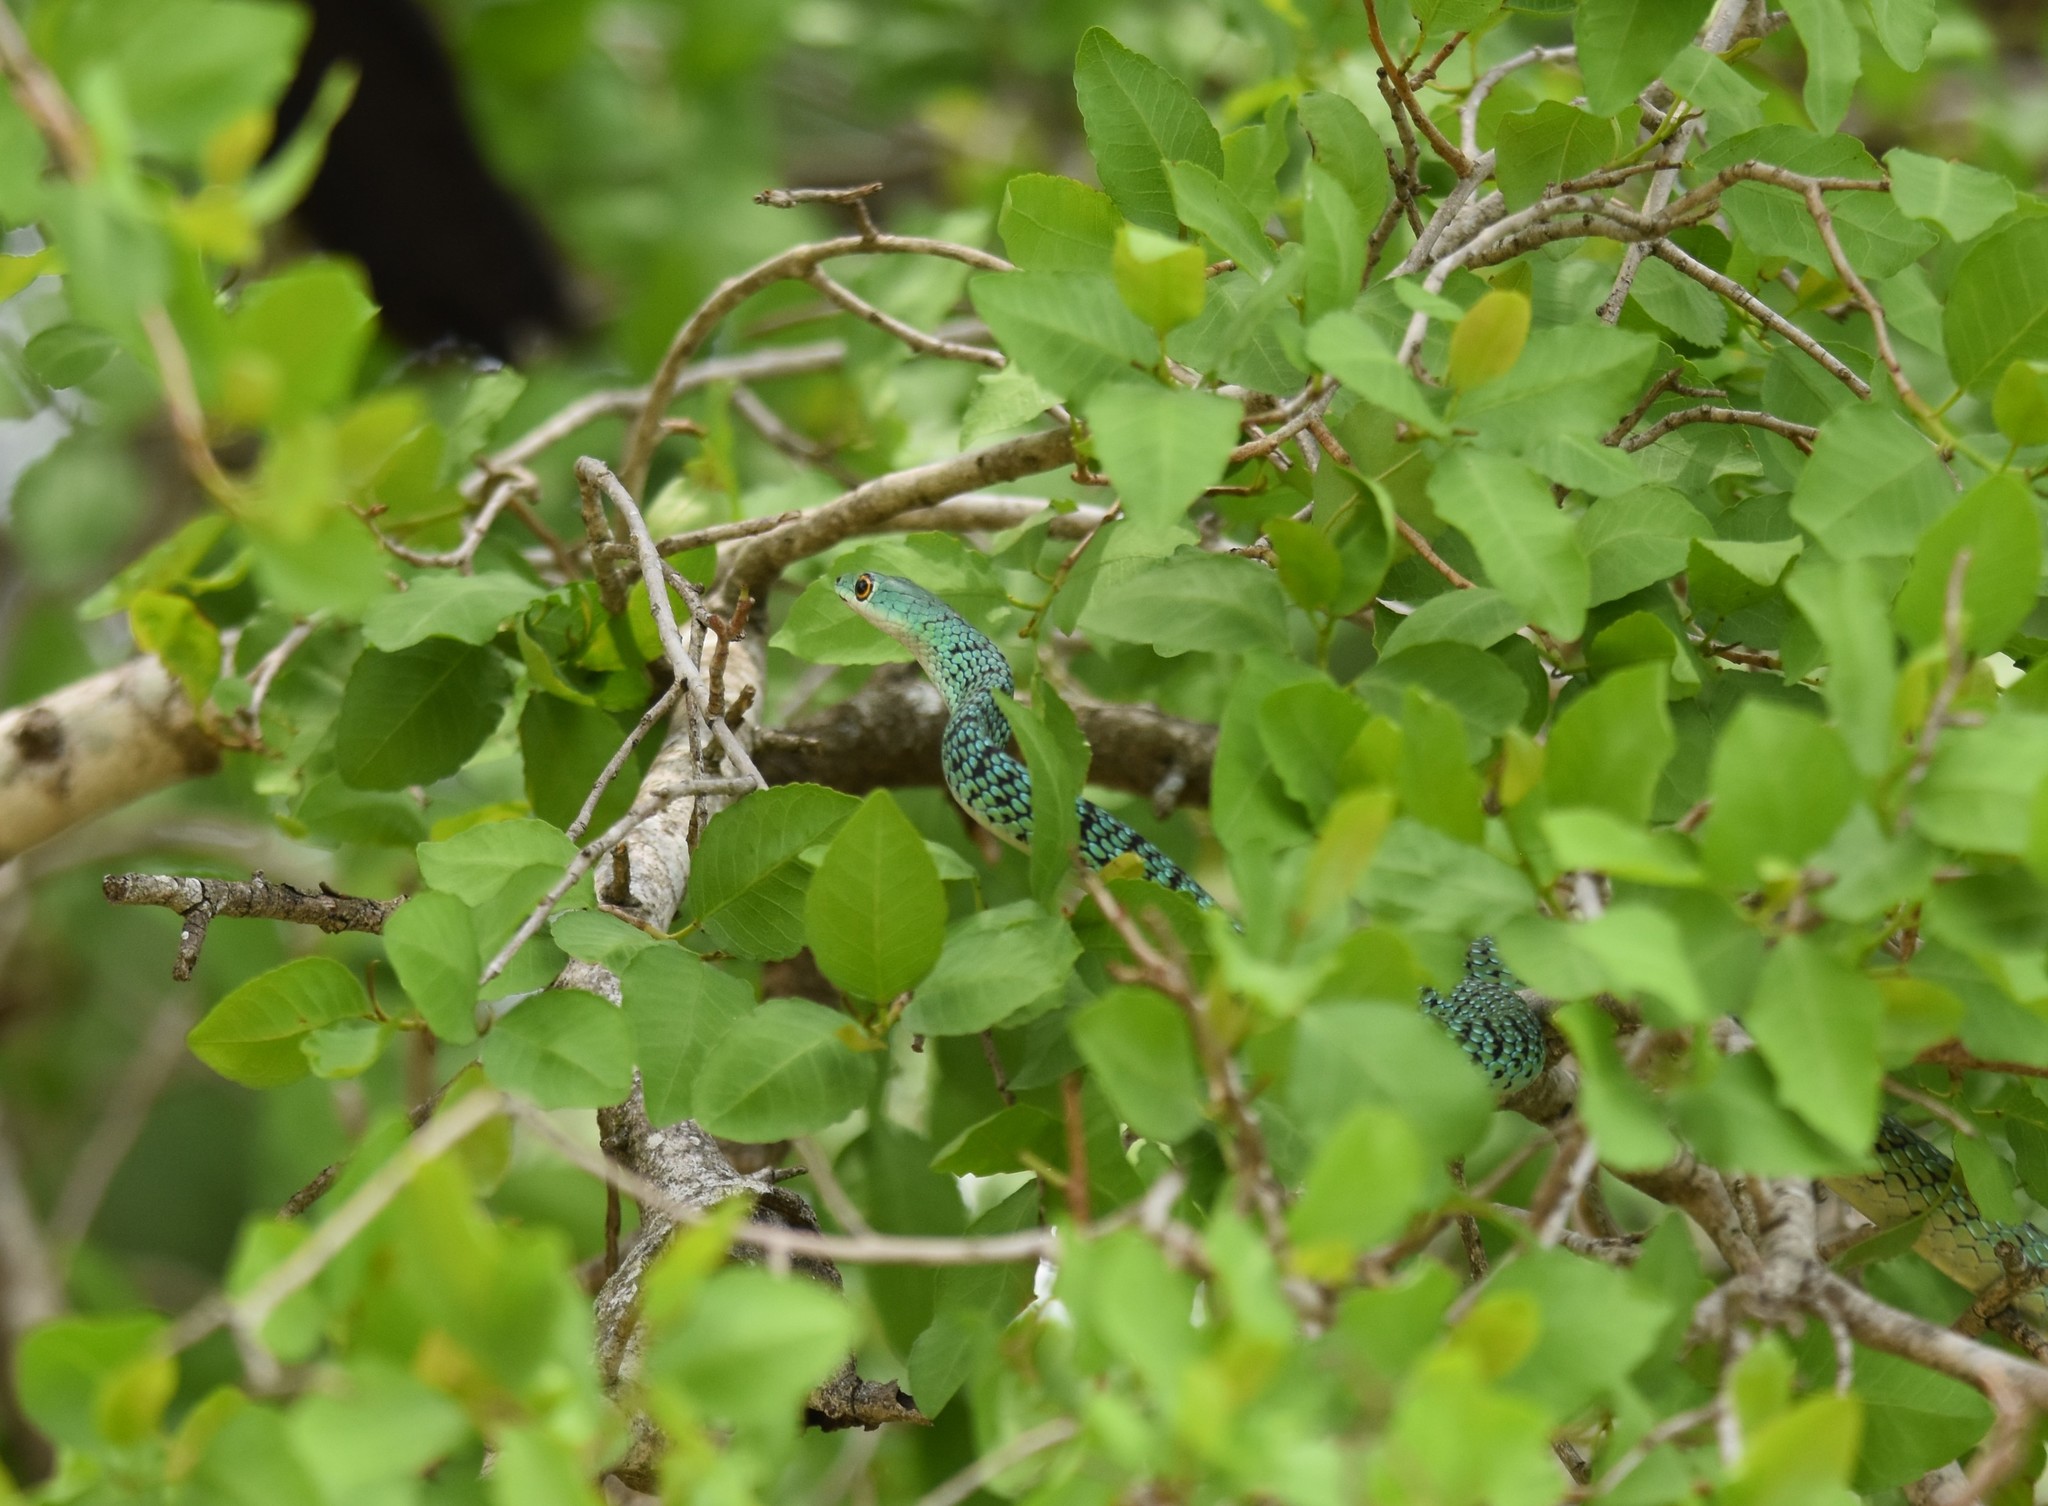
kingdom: Animalia
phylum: Chordata
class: Squamata
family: Colubridae
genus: Philothamnus
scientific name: Philothamnus semivariegatus
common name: Spotted bush snake
